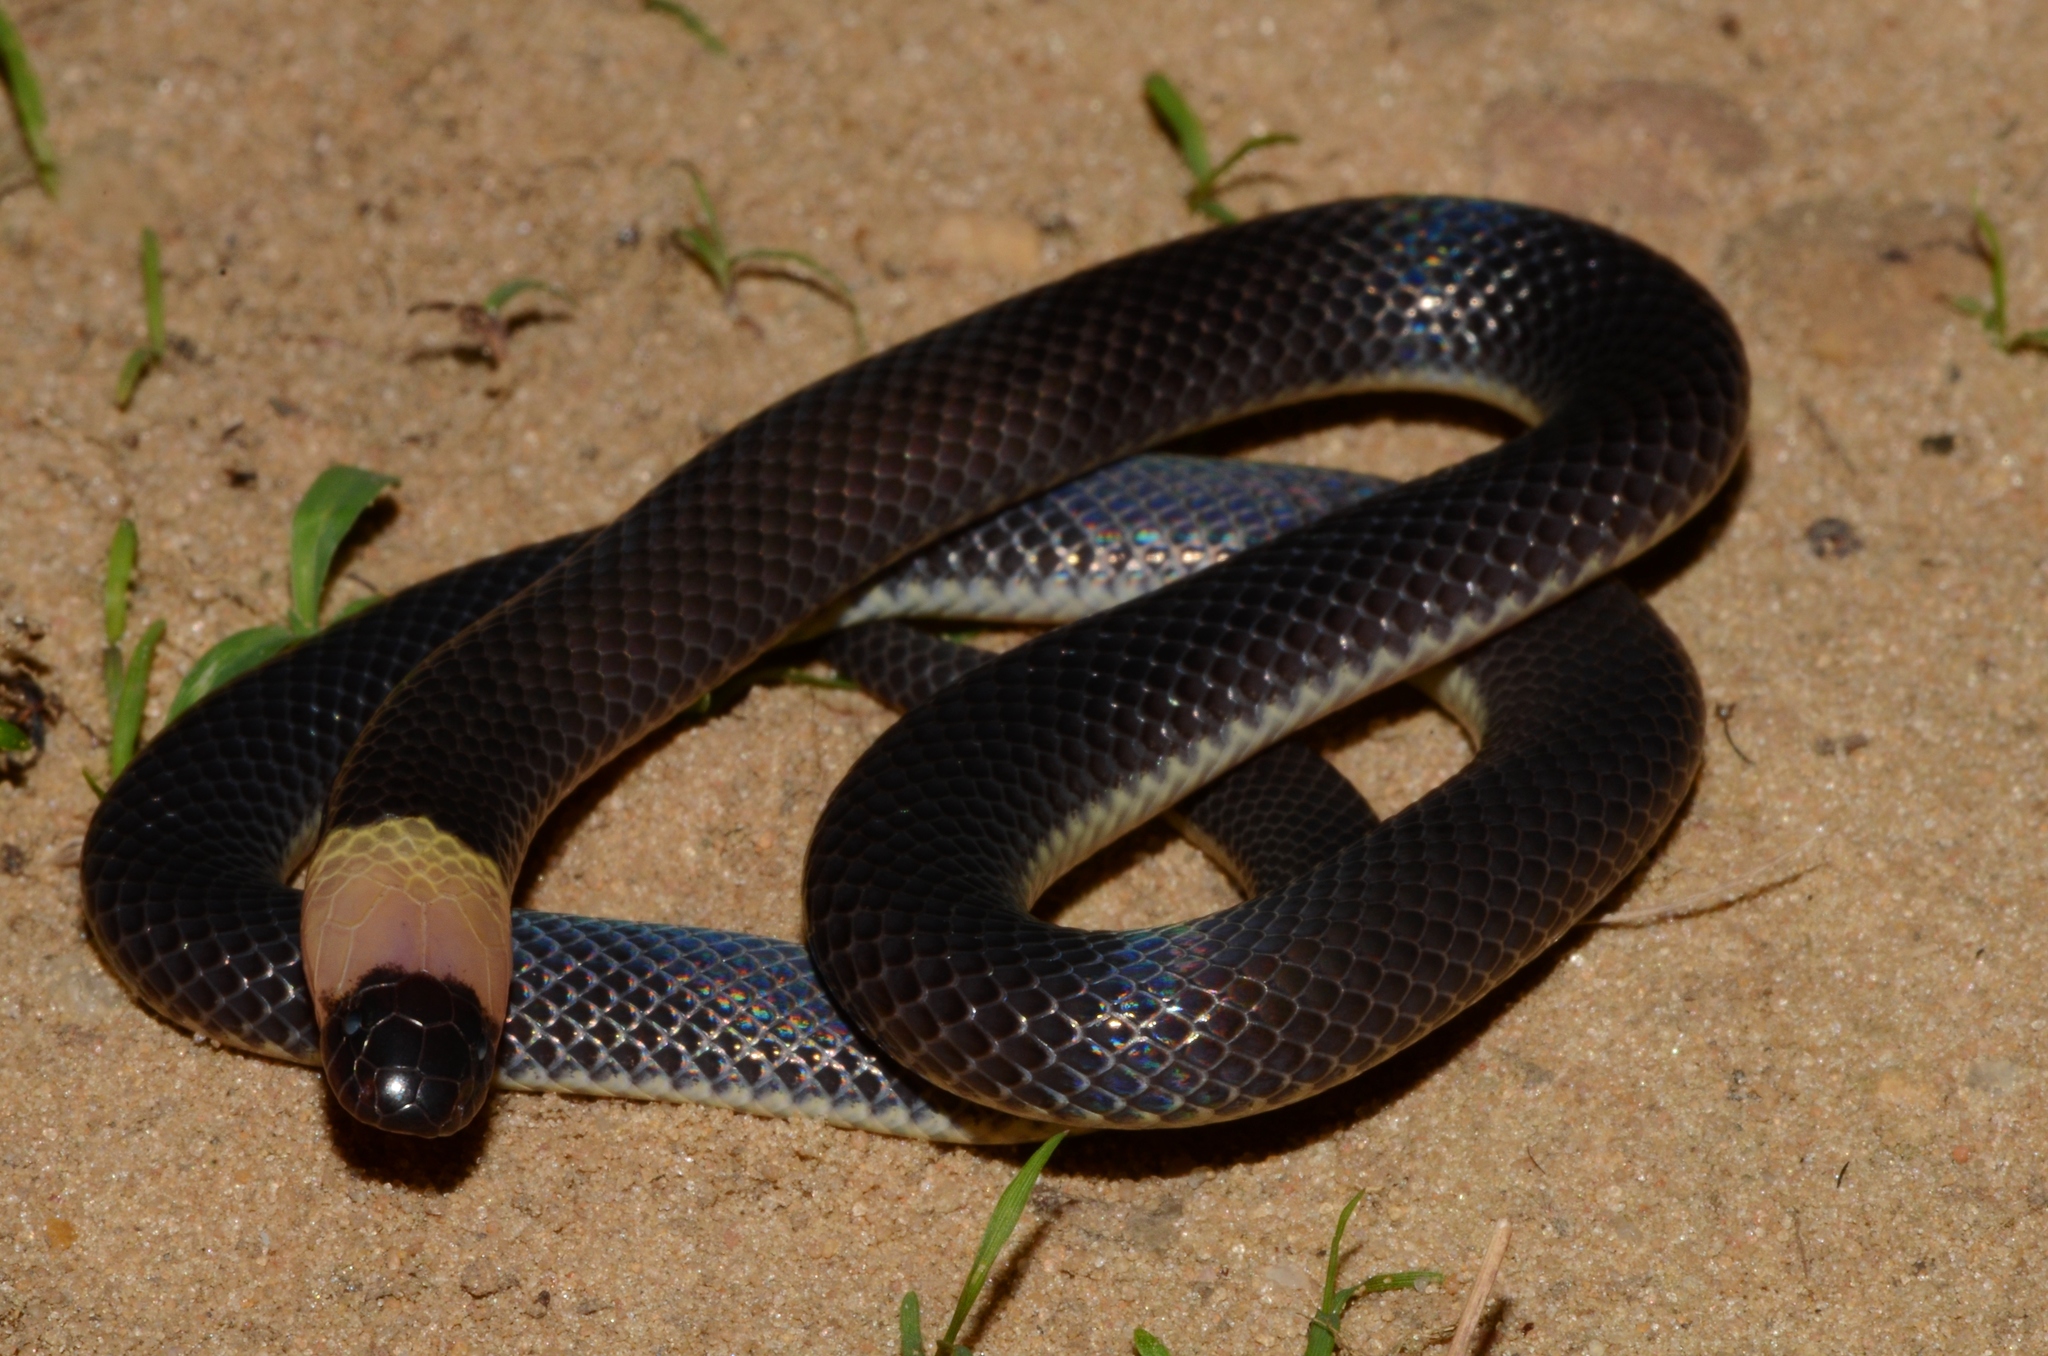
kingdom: Animalia
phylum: Chordata
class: Squamata
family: Atractaspididae
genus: Polemon
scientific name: Polemon bocourti
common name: Bocourt's snake-eater
